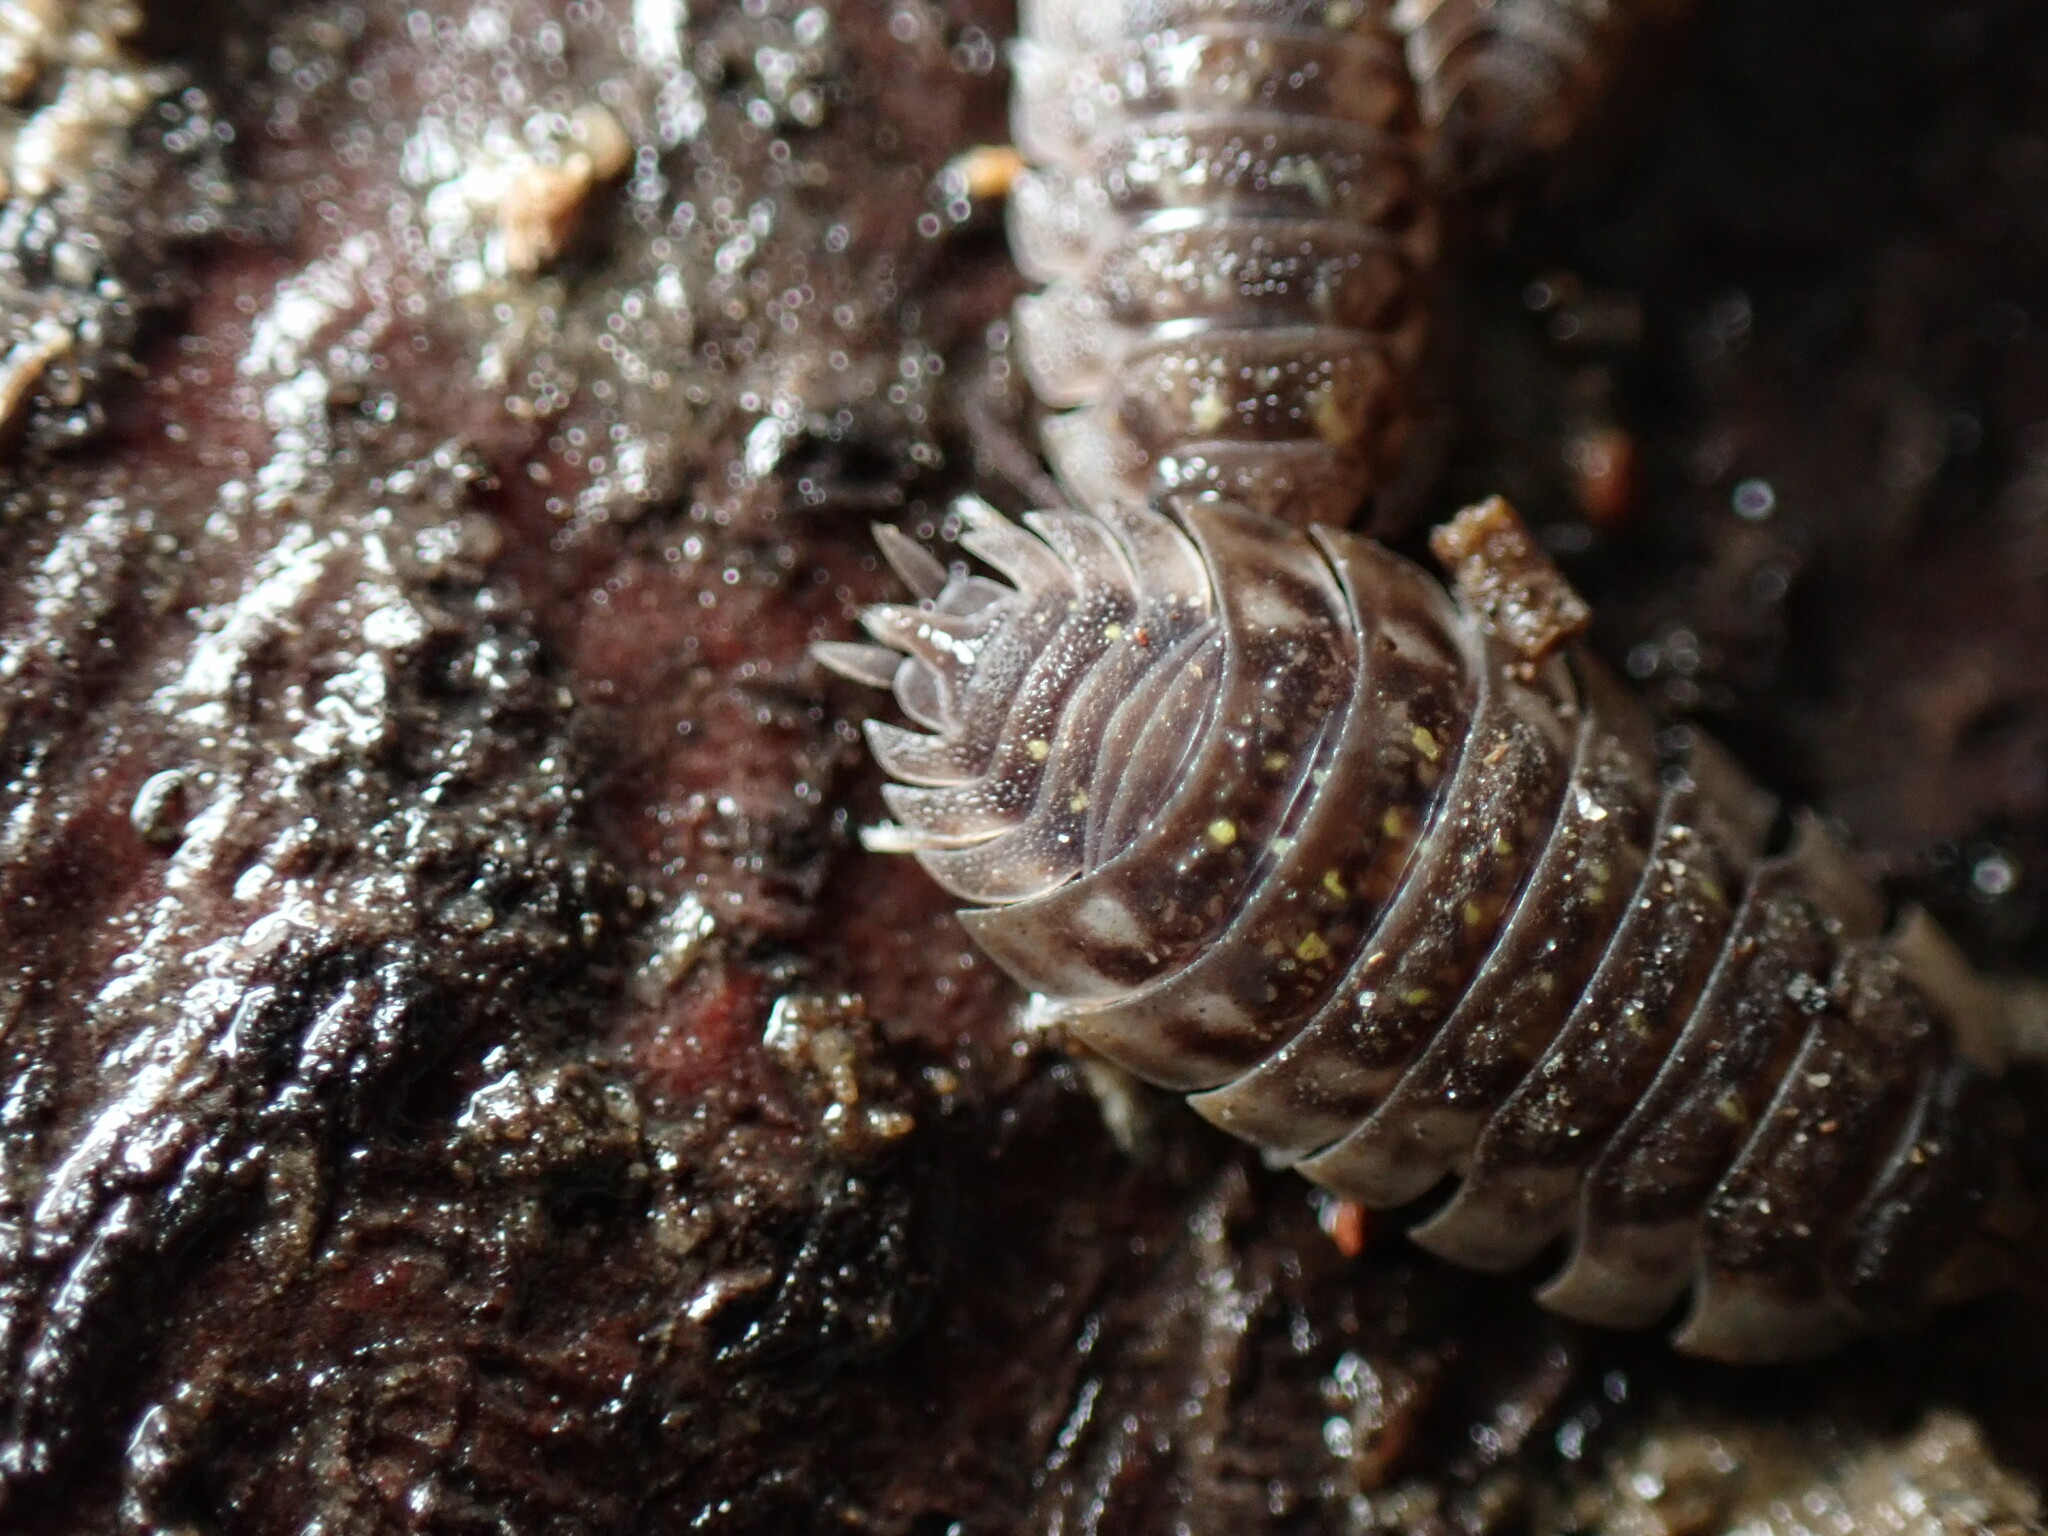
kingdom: Animalia
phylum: Arthropoda
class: Malacostraca
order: Isopoda
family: Oniscidae
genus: Oniscus
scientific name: Oniscus asellus
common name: Common shiny woodlouse
